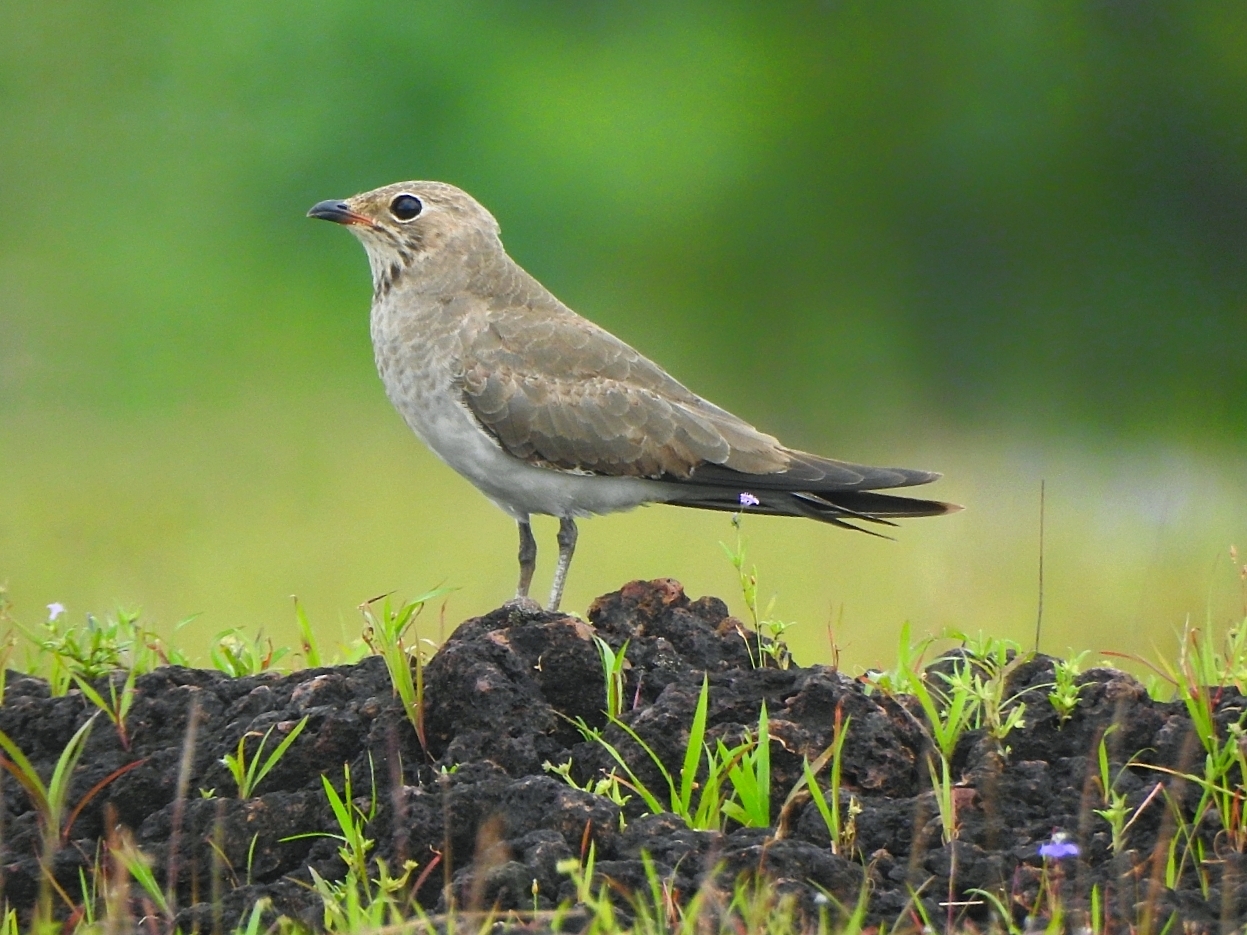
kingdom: Animalia
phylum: Chordata
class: Aves
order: Charadriiformes
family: Glareolidae
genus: Glareola
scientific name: Glareola maldivarum
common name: Oriental pratincole
